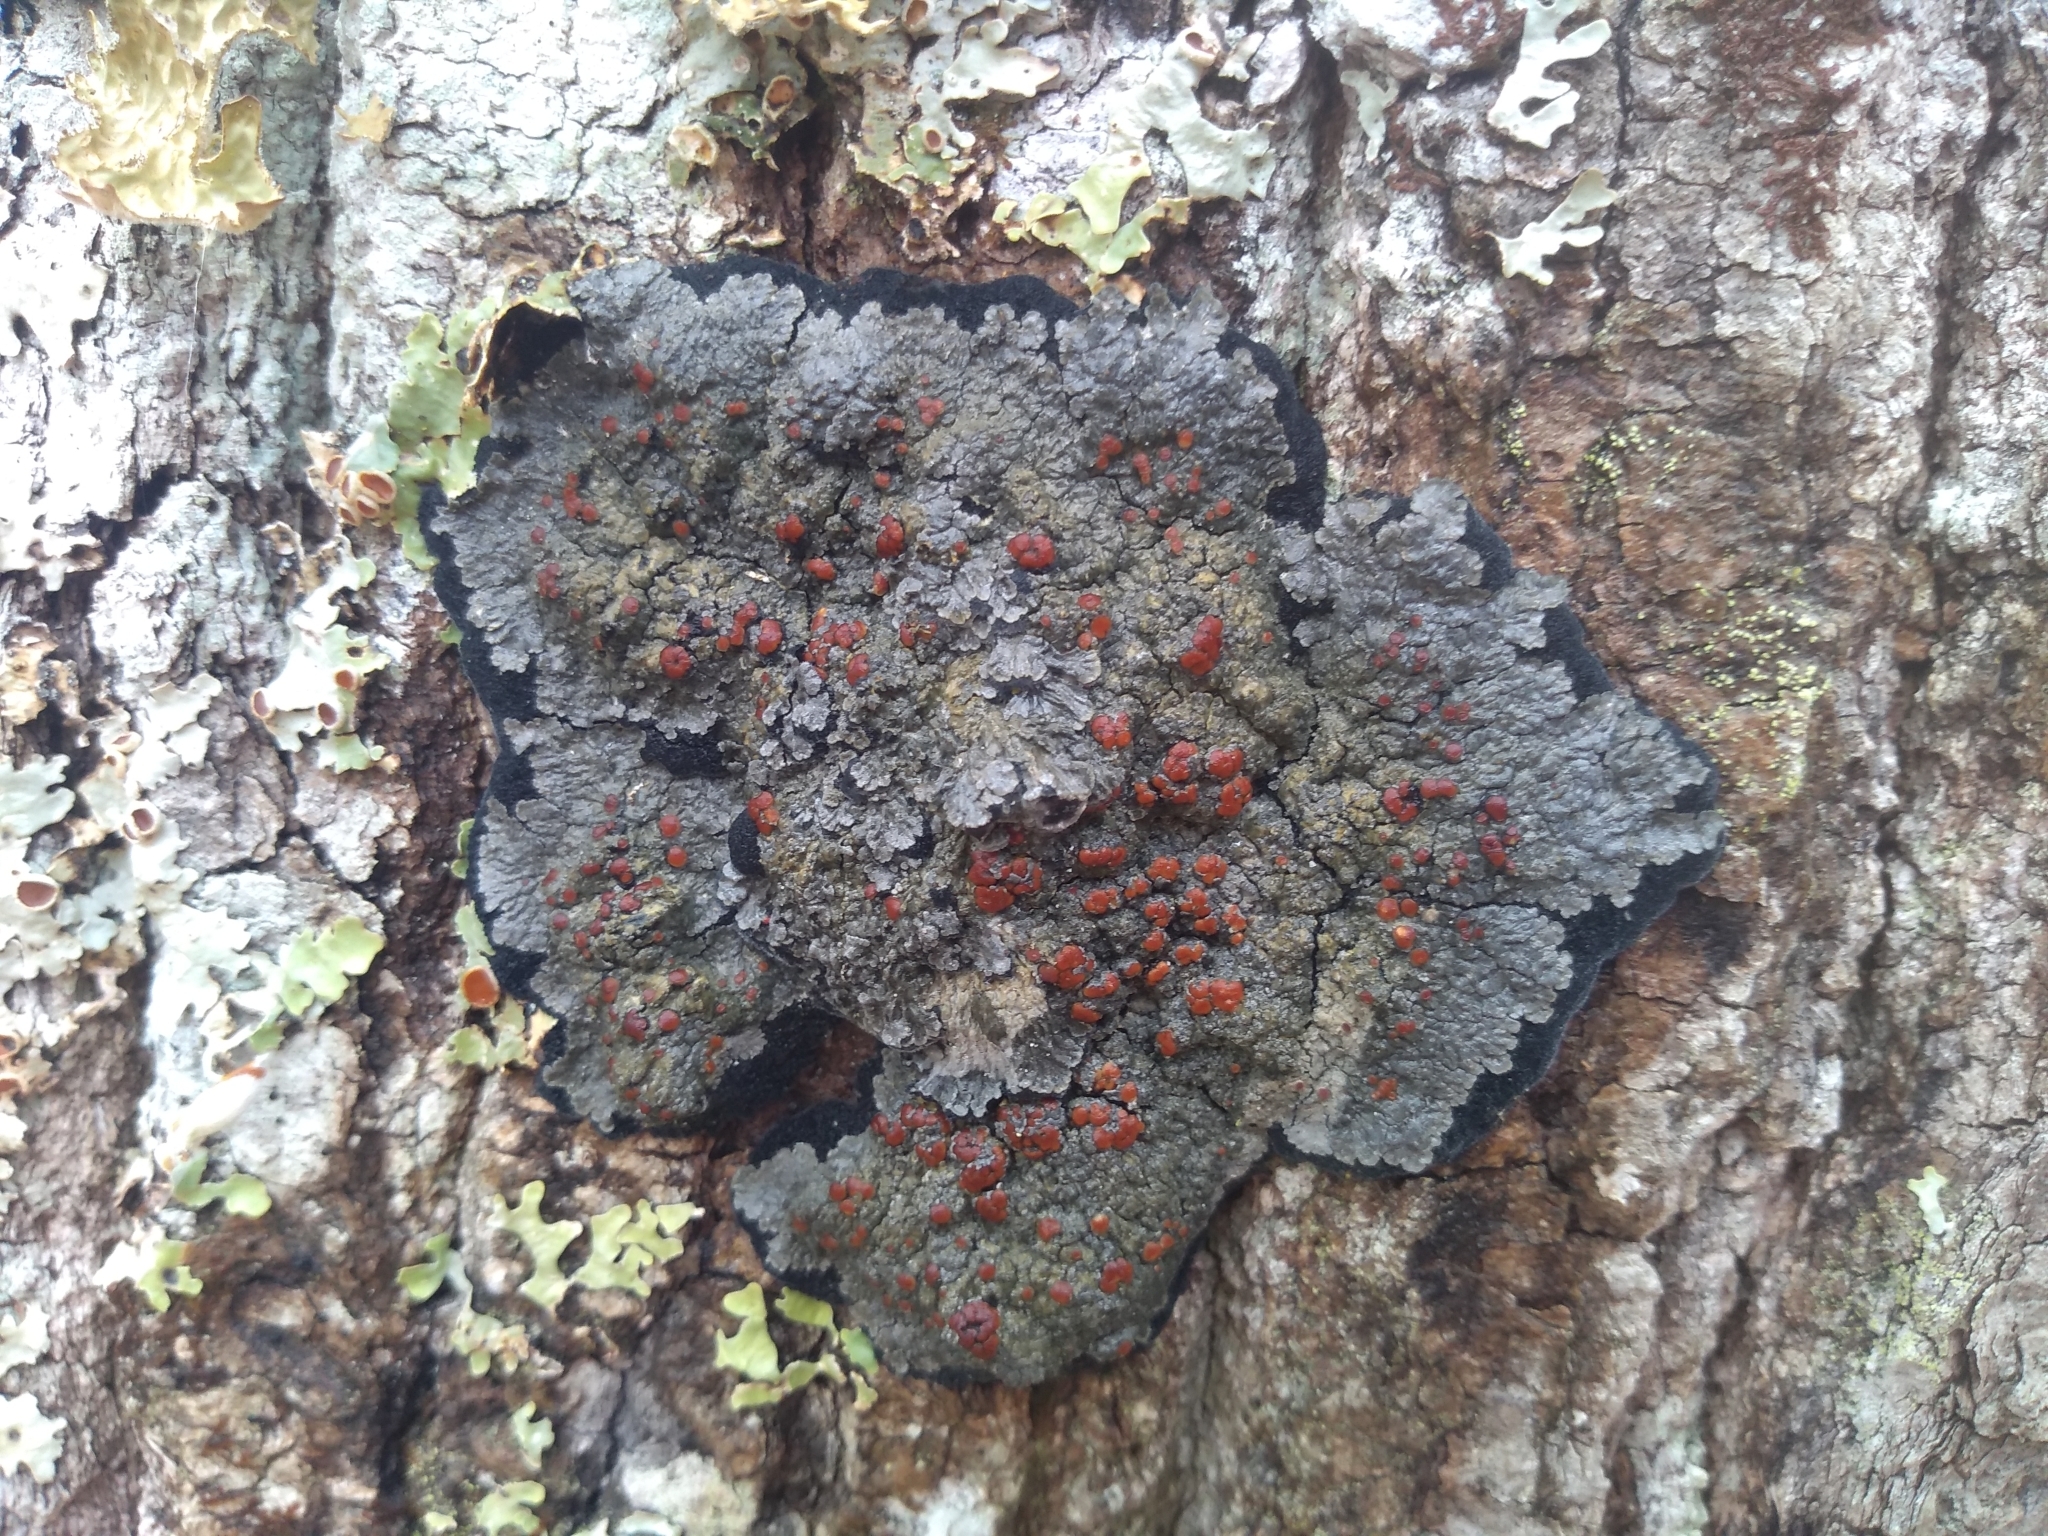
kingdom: Fungi
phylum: Ascomycota
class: Lecanoromycetes
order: Peltigerales
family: Pannariaceae
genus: Pectenia
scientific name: Pectenia plumbea
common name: Bladder stalks
